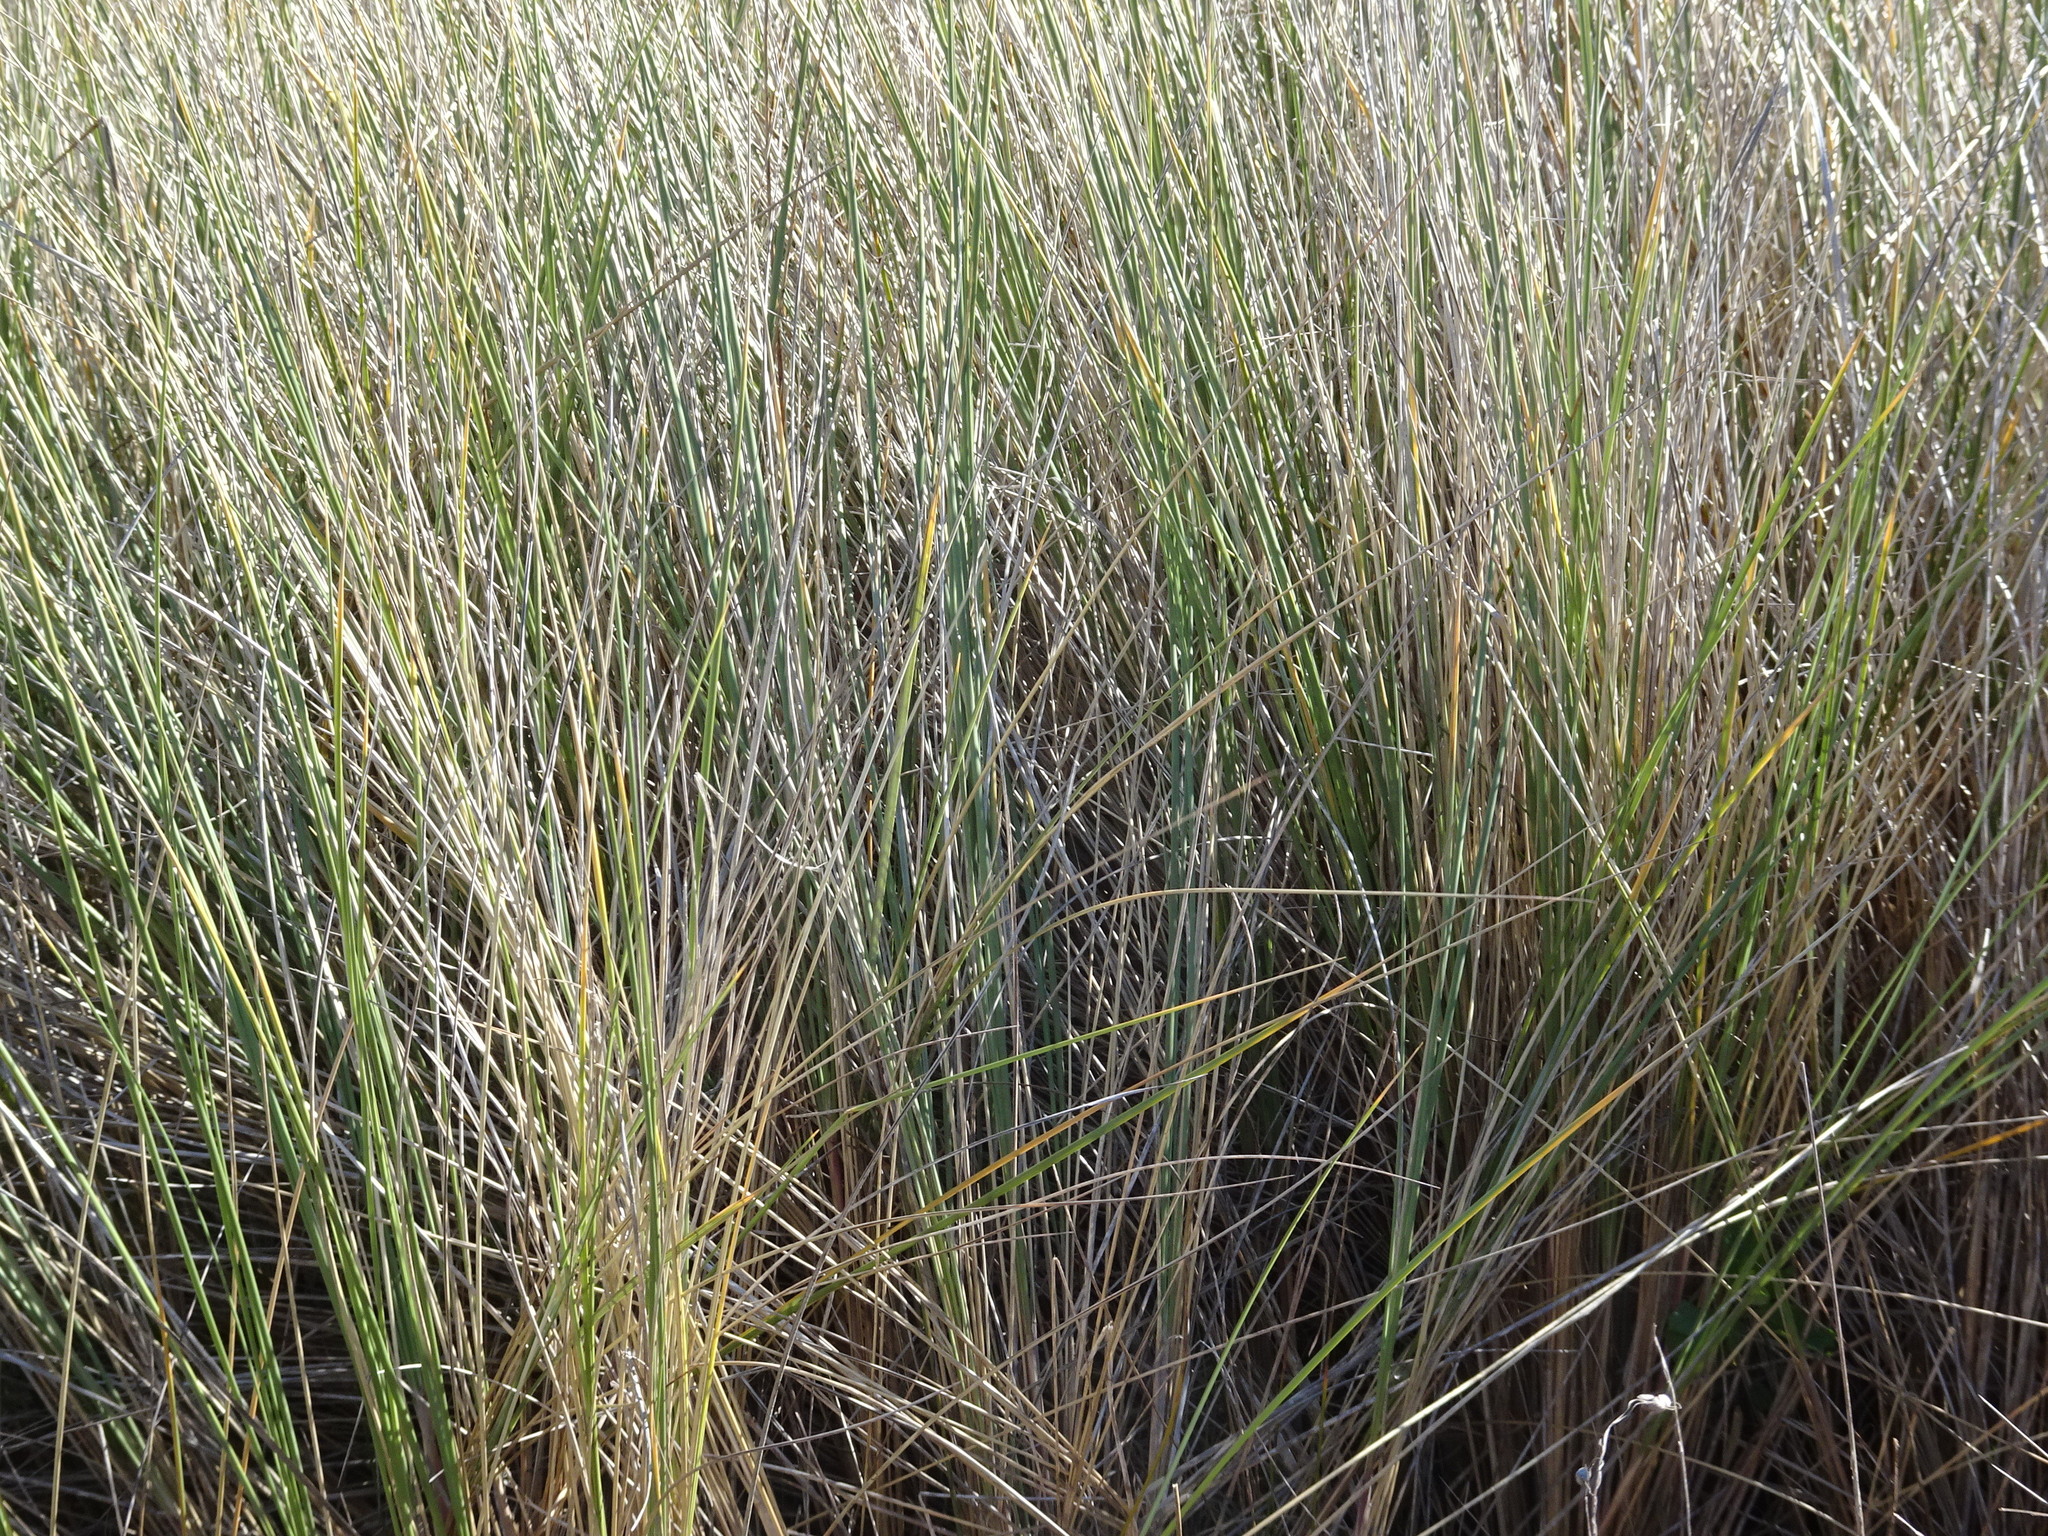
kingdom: Plantae
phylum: Tracheophyta
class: Liliopsida
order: Poales
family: Poaceae
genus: Calamagrostis
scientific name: Calamagrostis arenaria
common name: European beachgrass
